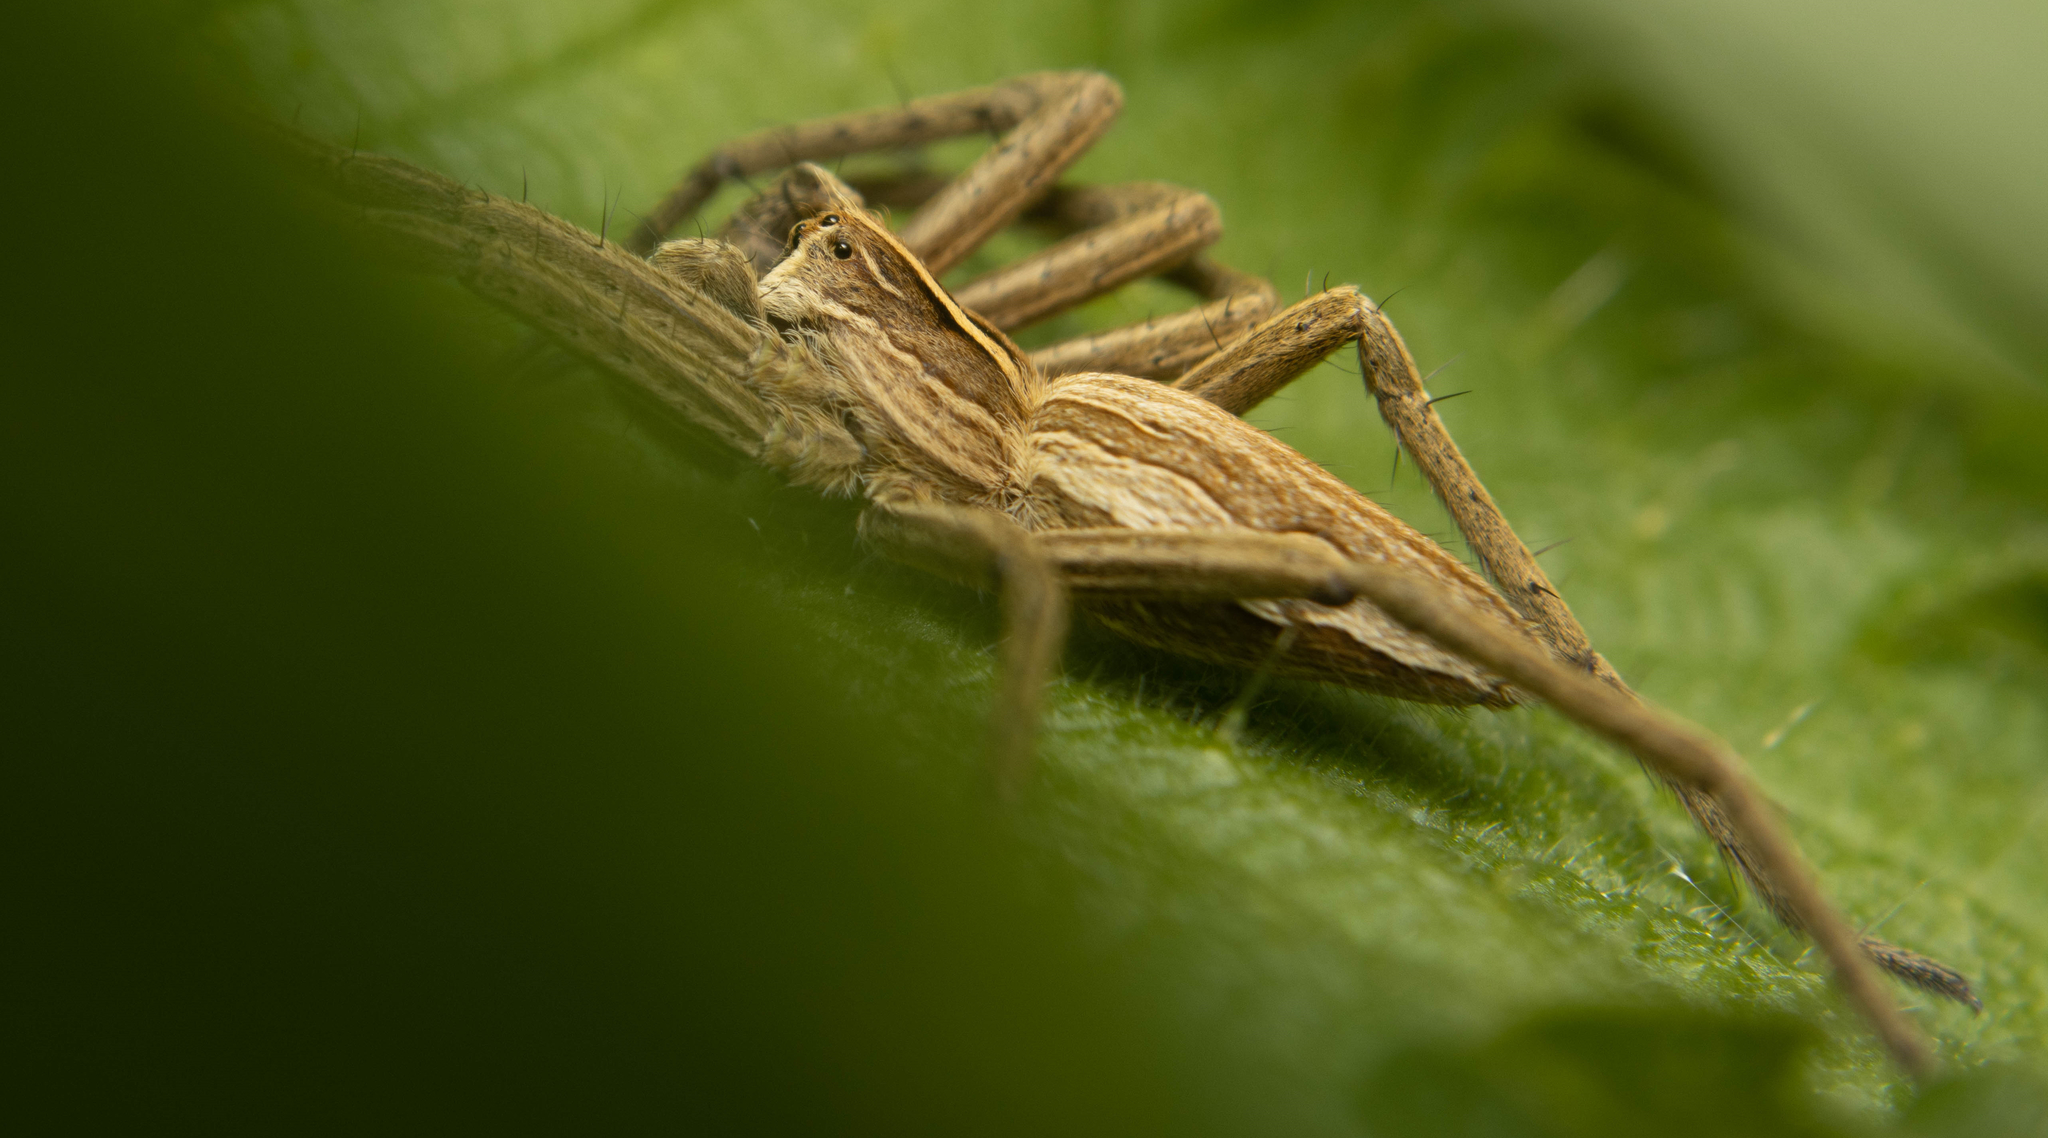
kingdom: Animalia
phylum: Arthropoda
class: Arachnida
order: Araneae
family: Pisauridae
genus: Pisaura
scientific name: Pisaura mirabilis
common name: Tent spider
